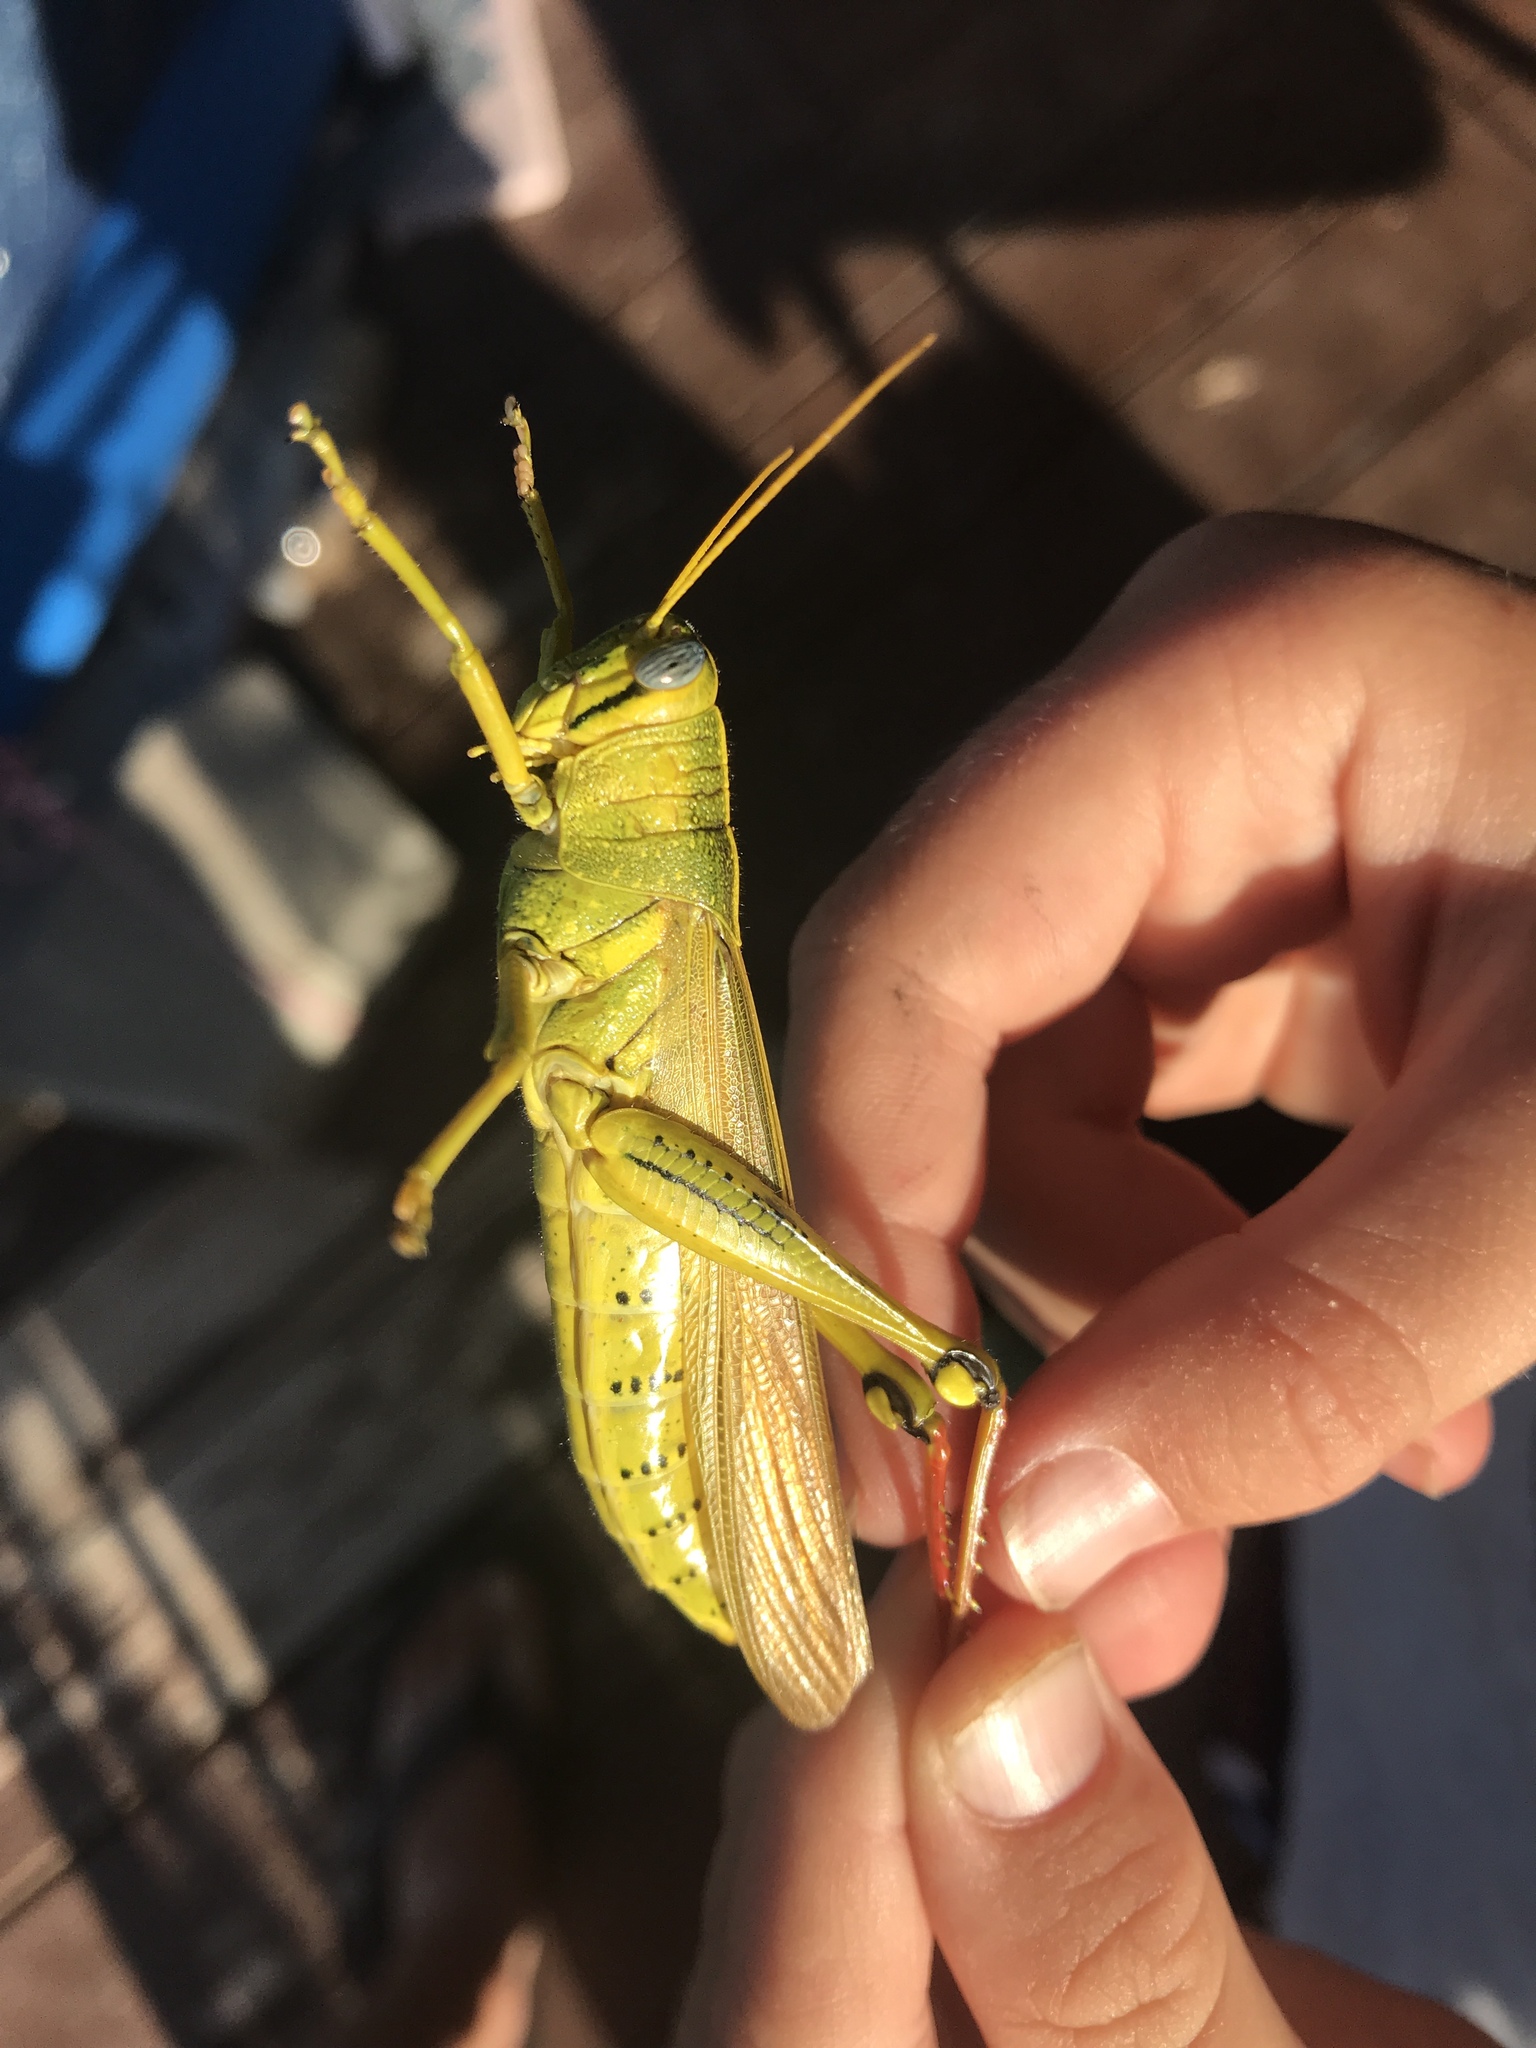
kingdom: Animalia
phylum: Arthropoda
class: Insecta
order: Orthoptera
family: Acrididae
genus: Schistocerca
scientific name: Schistocerca lineata
